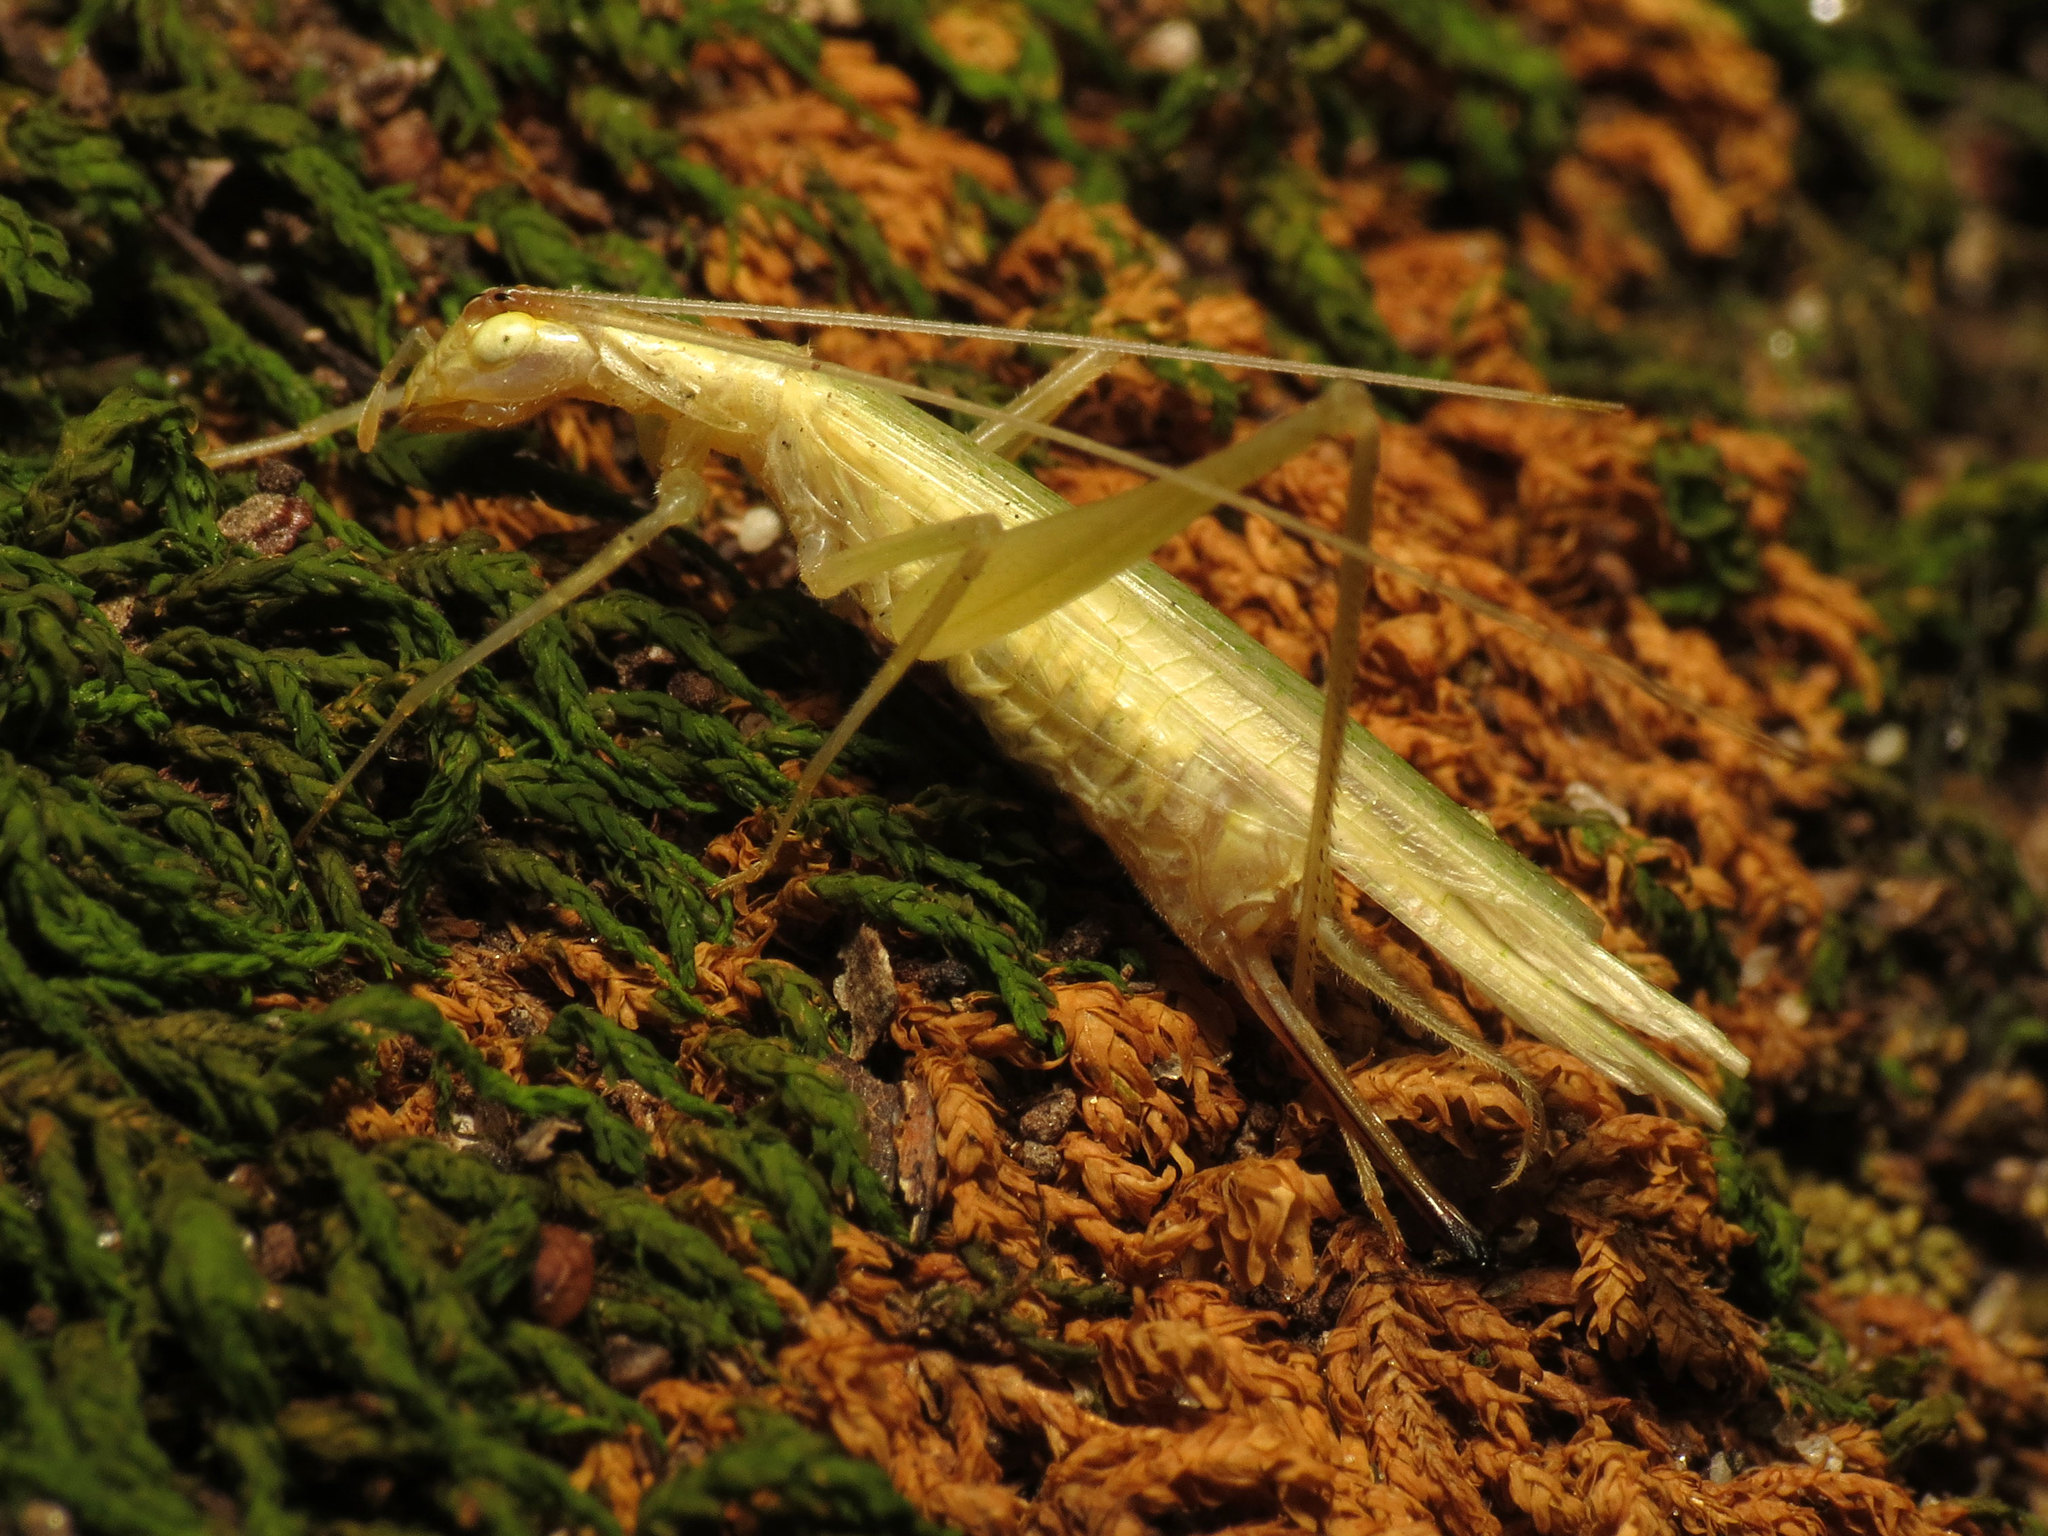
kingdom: Animalia
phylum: Arthropoda
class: Insecta
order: Orthoptera
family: Gryllidae
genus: Oecanthus
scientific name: Oecanthus niveus
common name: Narrow-winged tree cricket
